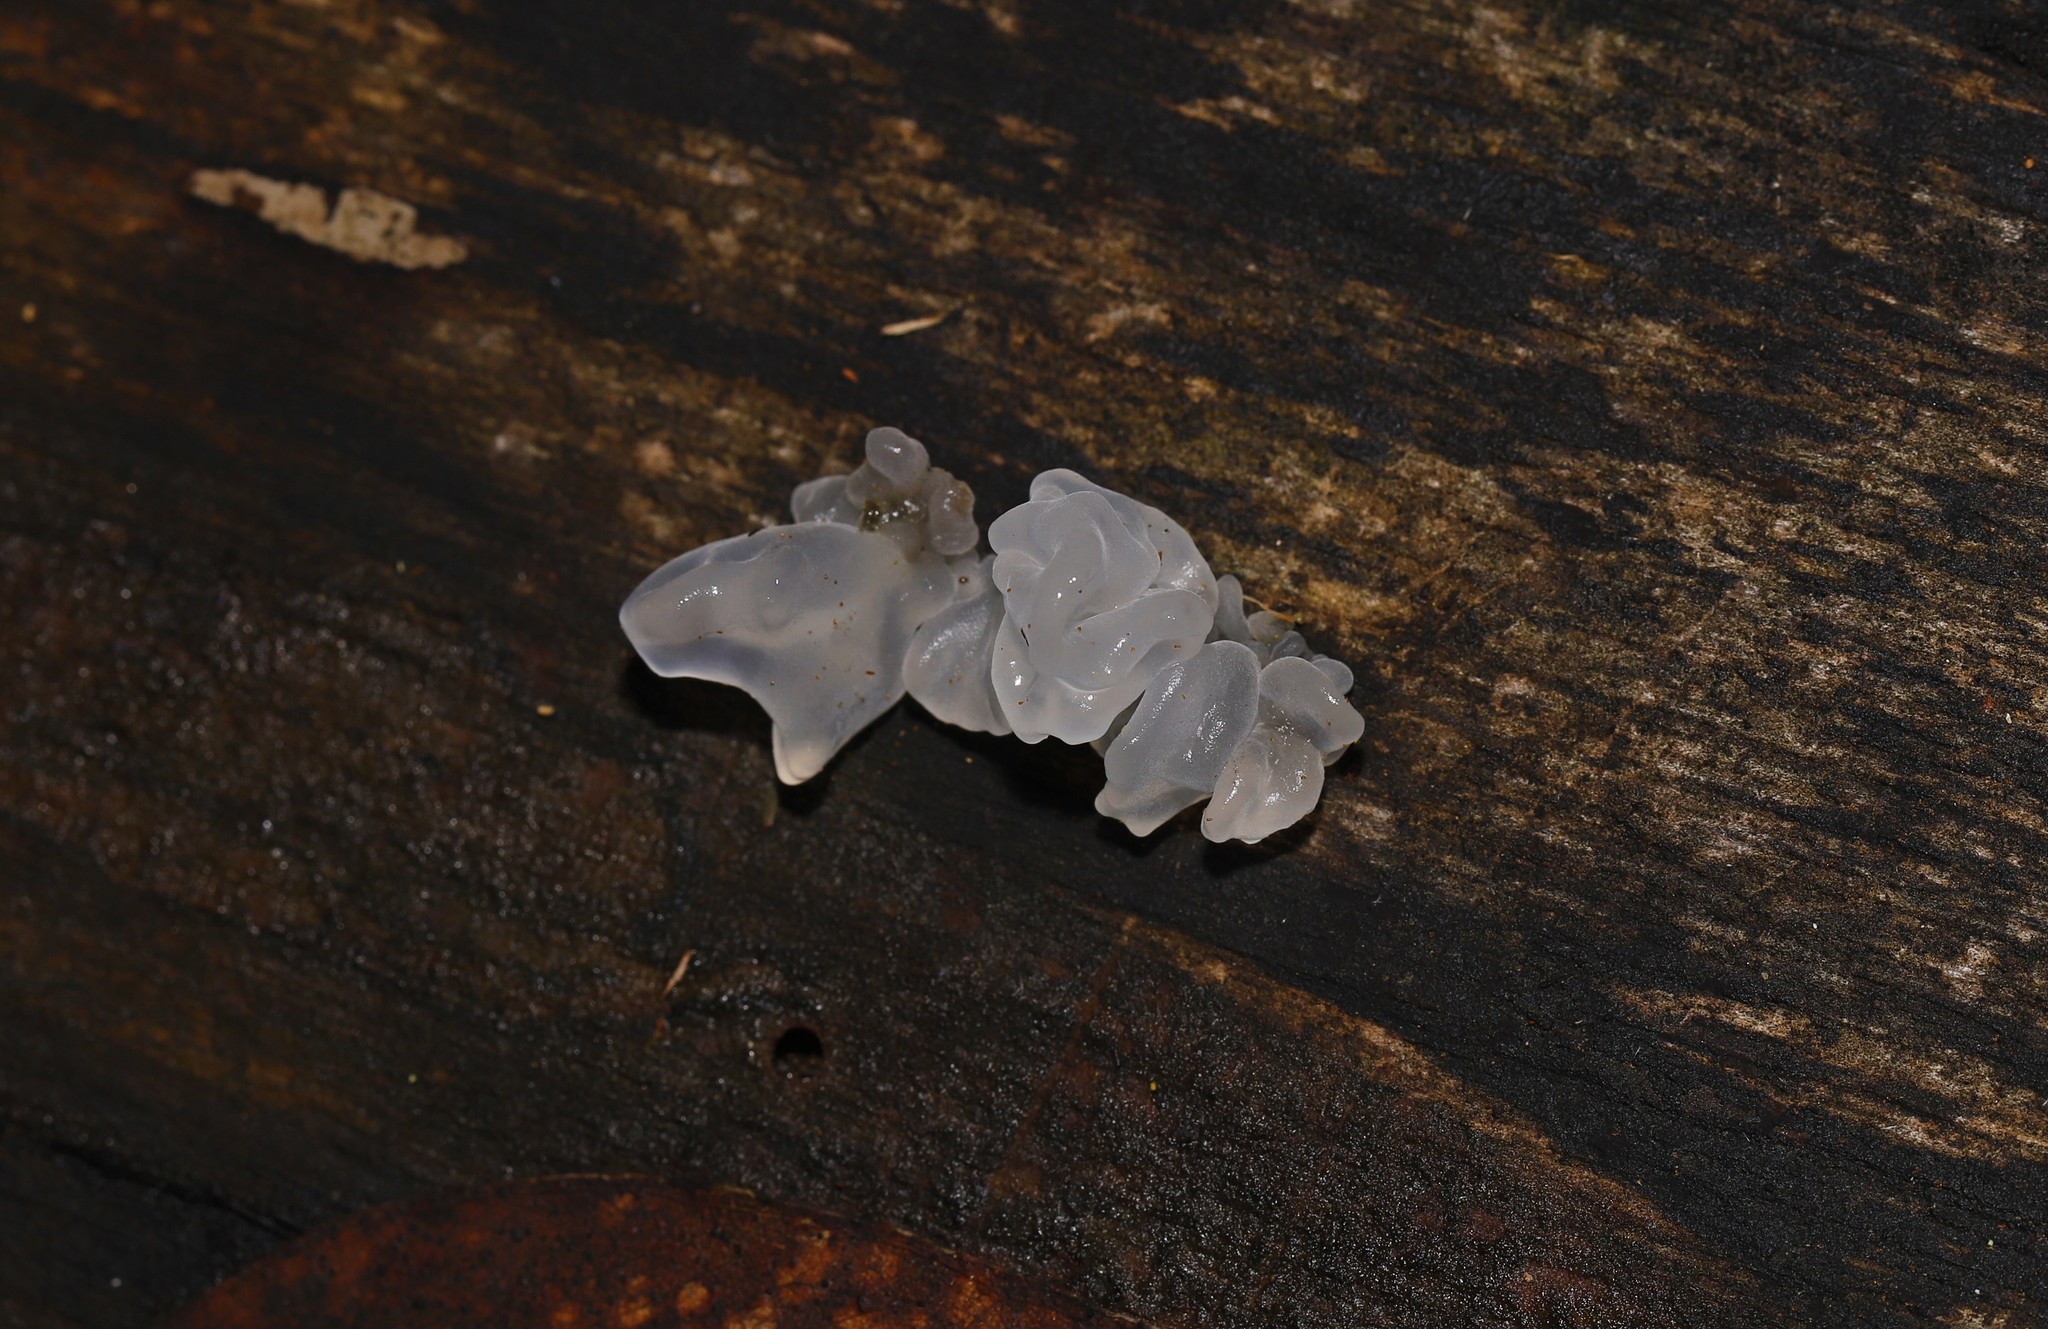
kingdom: Fungi
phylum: Basidiomycota
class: Tremellomycetes
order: Tremellales
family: Tremellaceae
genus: Tremella
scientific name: Tremella fuciformis
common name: Snow fungus
